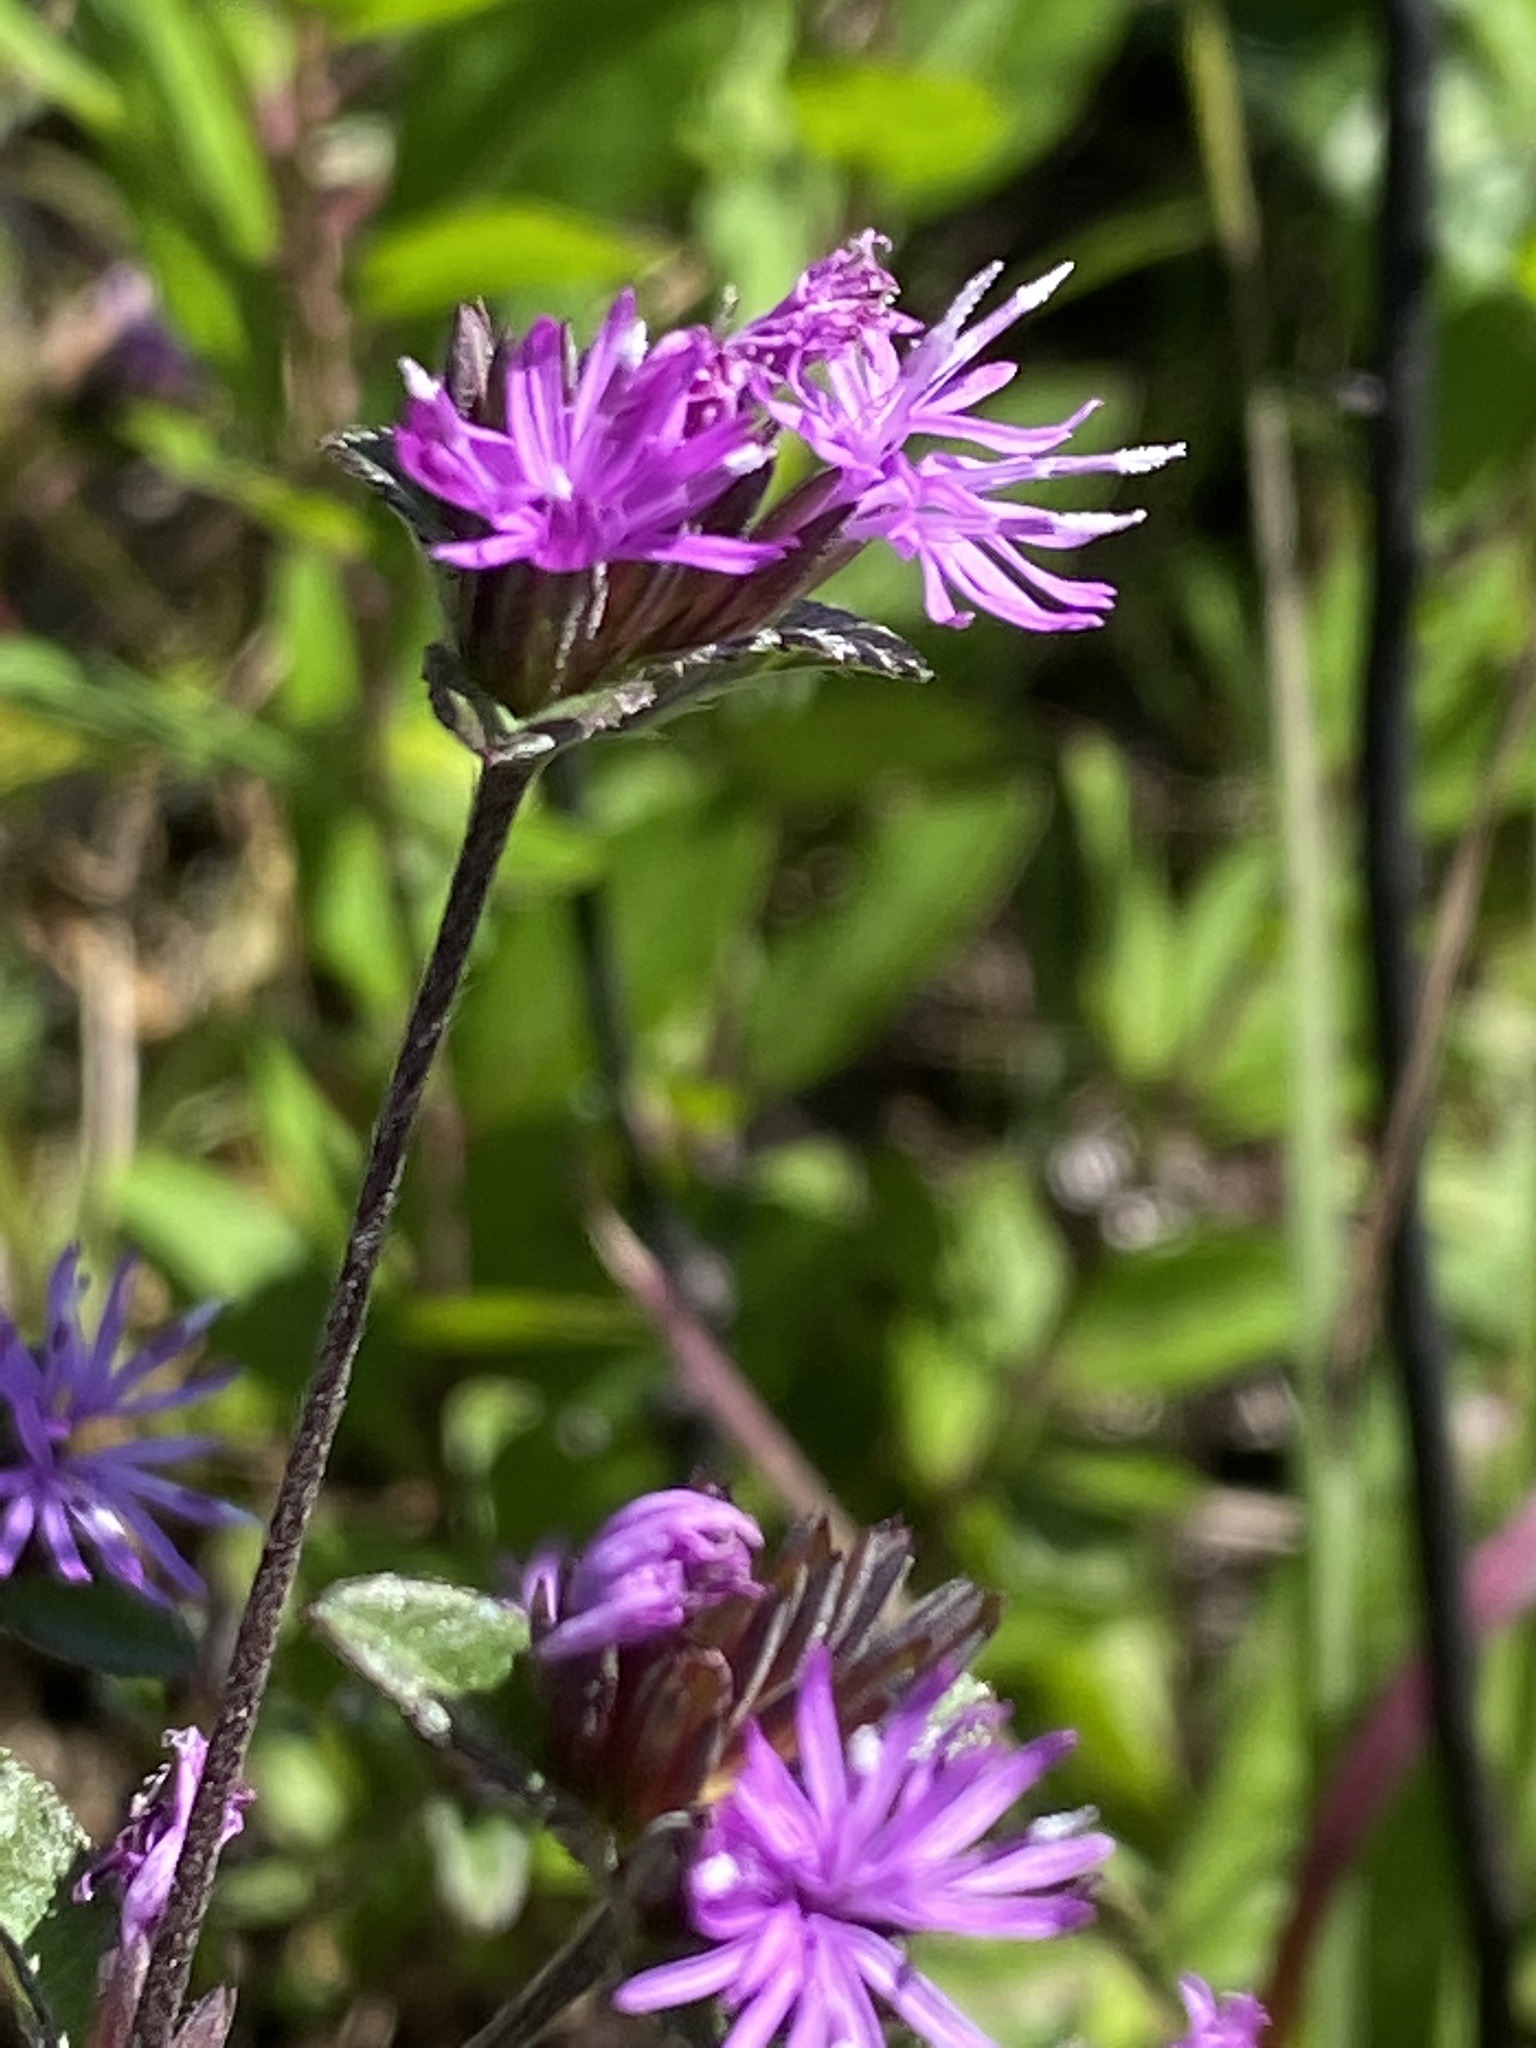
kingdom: Plantae
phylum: Tracheophyta
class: Magnoliopsida
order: Asterales
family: Asteraceae
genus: Elephantopus
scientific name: Elephantopus nudatus
